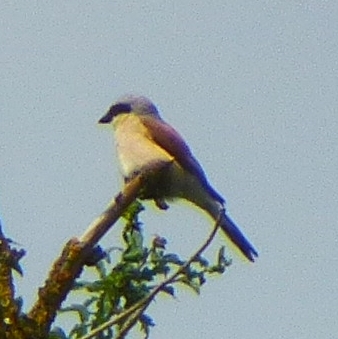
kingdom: Animalia
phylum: Chordata
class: Aves
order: Passeriformes
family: Laniidae
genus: Lanius
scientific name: Lanius collurio
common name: Red-backed shrike
